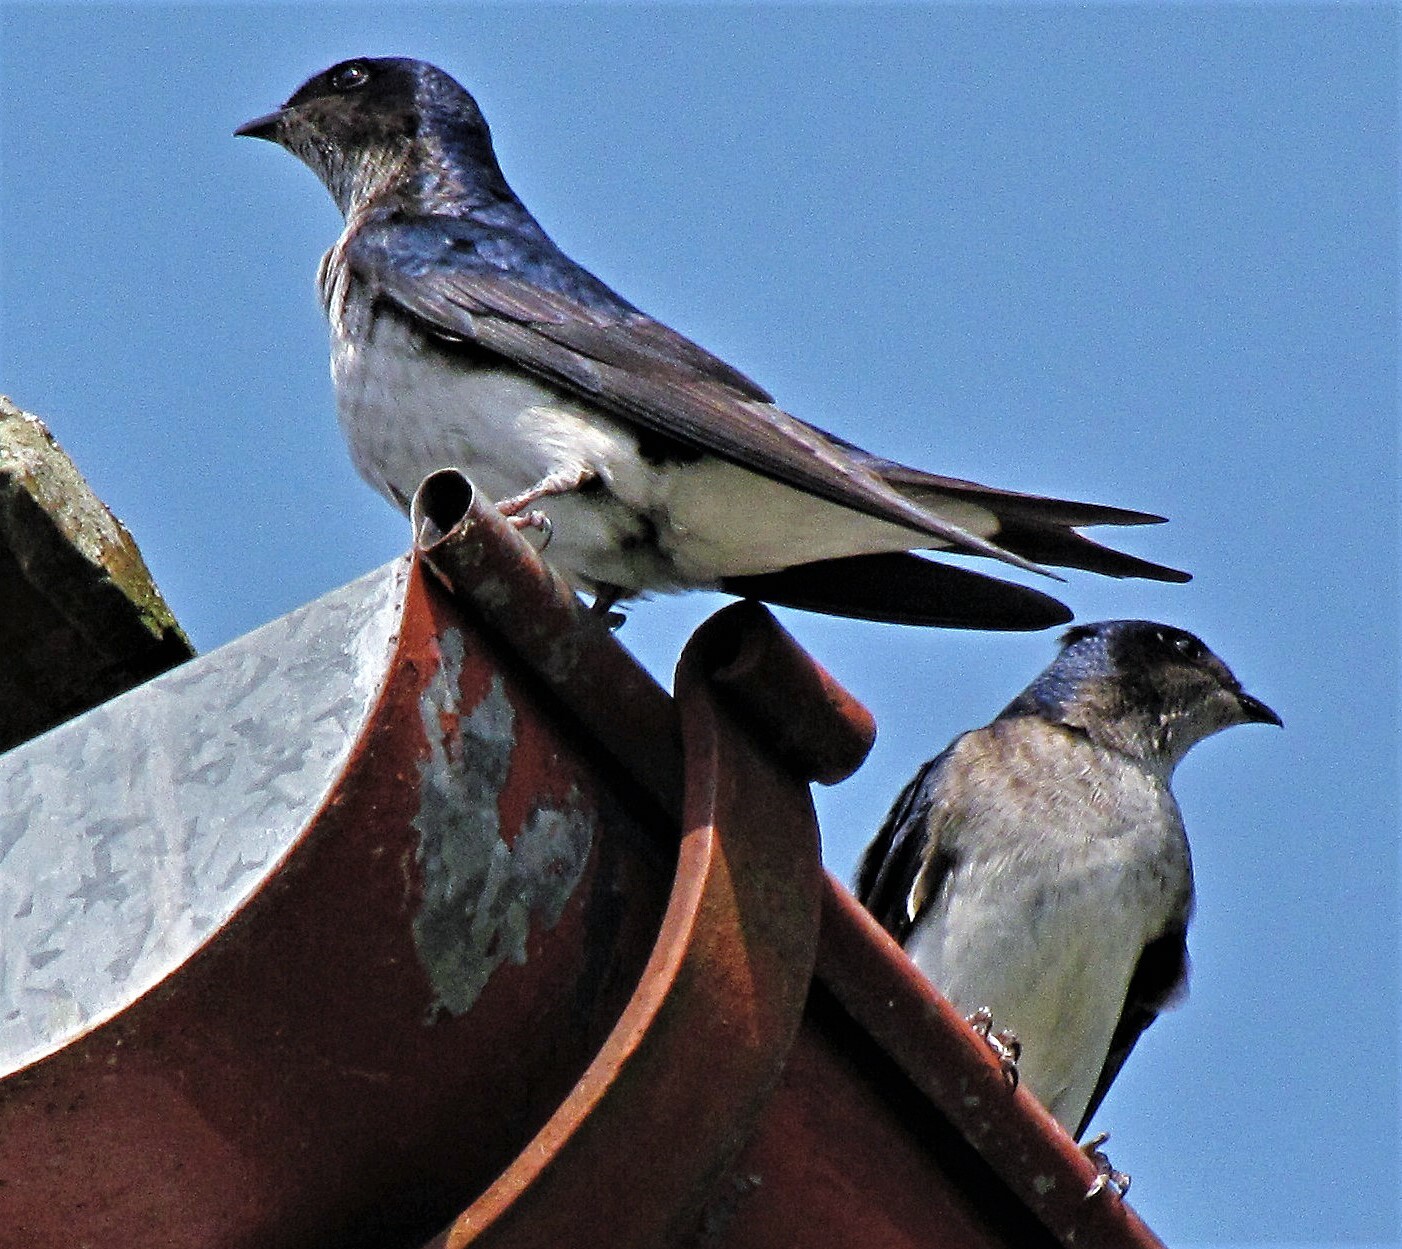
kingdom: Animalia
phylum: Chordata
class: Aves
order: Passeriformes
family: Hirundinidae
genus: Progne
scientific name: Progne chalybea
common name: Grey-breasted martin
